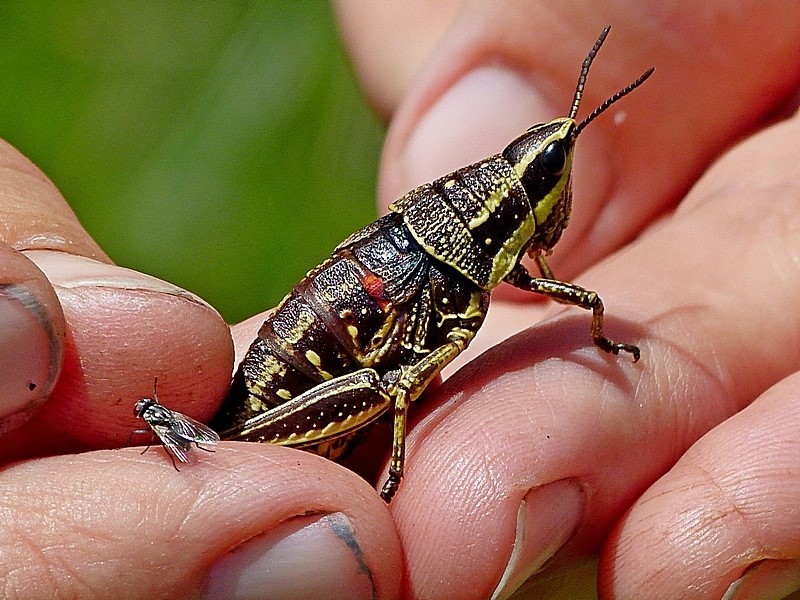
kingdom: Animalia
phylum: Arthropoda
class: Insecta
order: Orthoptera
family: Pyrgomorphidae
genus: Monistria
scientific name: Monistria concinna
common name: Southern pyrgomorph
